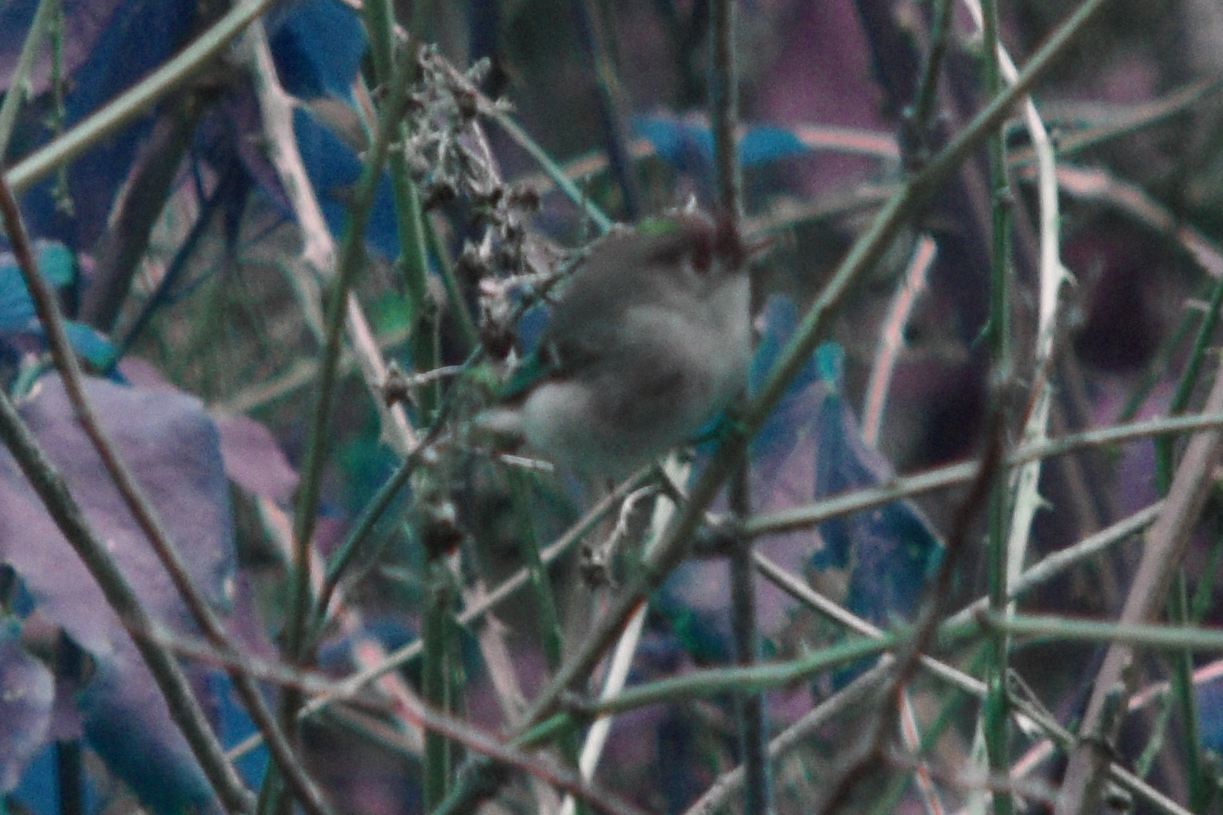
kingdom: Animalia
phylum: Chordata
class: Aves
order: Passeriformes
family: Regulidae
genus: Regulus
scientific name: Regulus calendula
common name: Ruby-crowned kinglet
